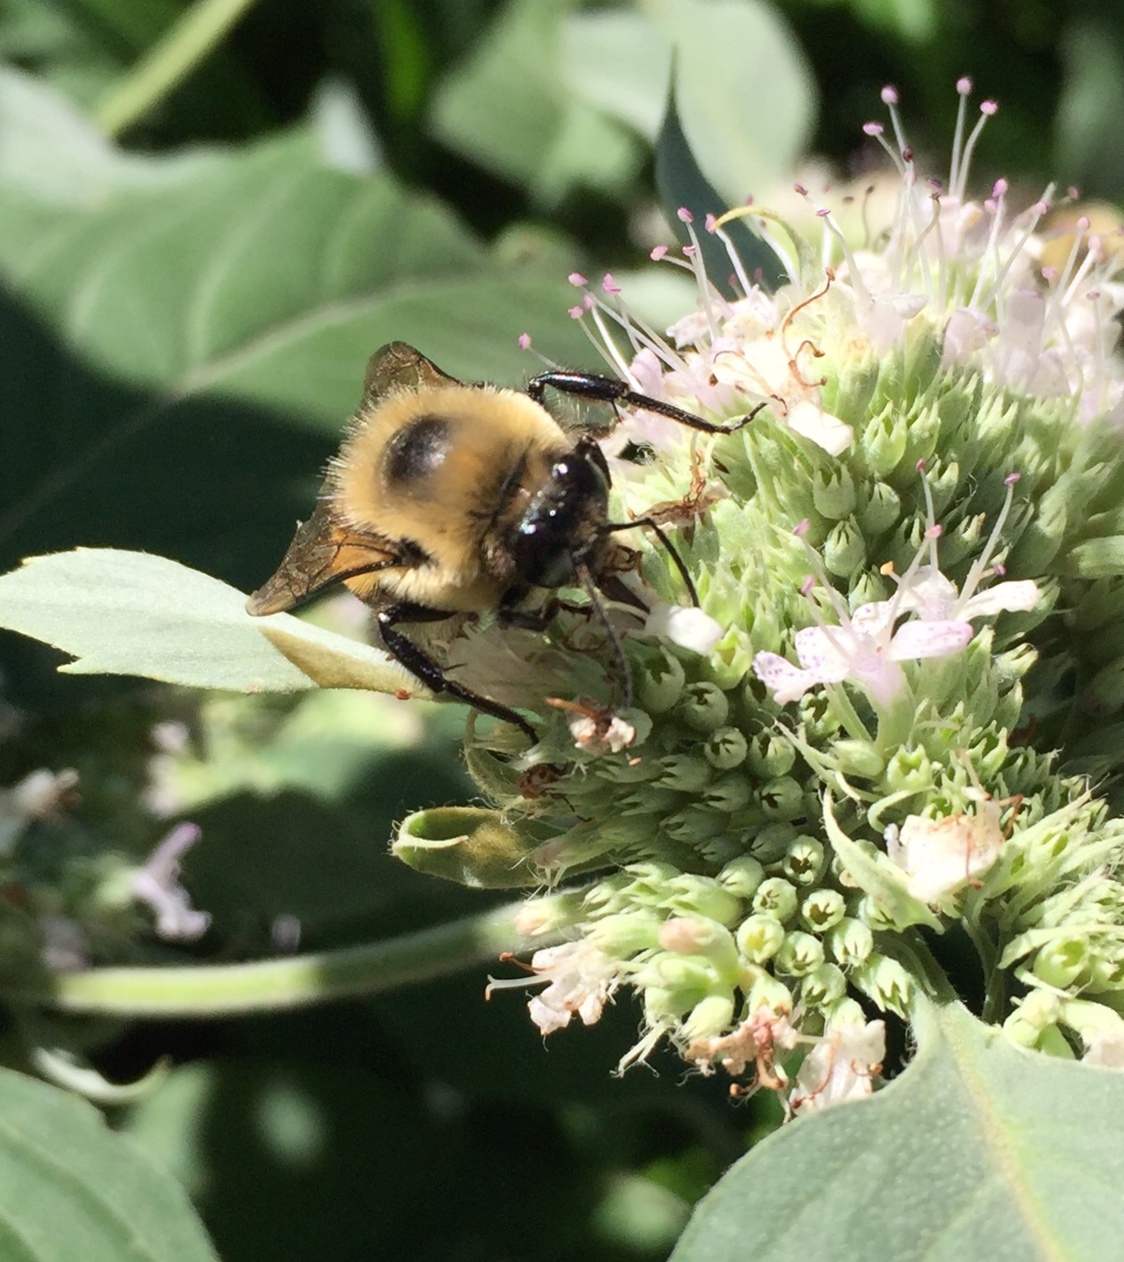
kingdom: Animalia
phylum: Arthropoda
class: Insecta
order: Hymenoptera
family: Apidae
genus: Bombus
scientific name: Bombus griseocollis
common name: Brown-belted bumble bee
